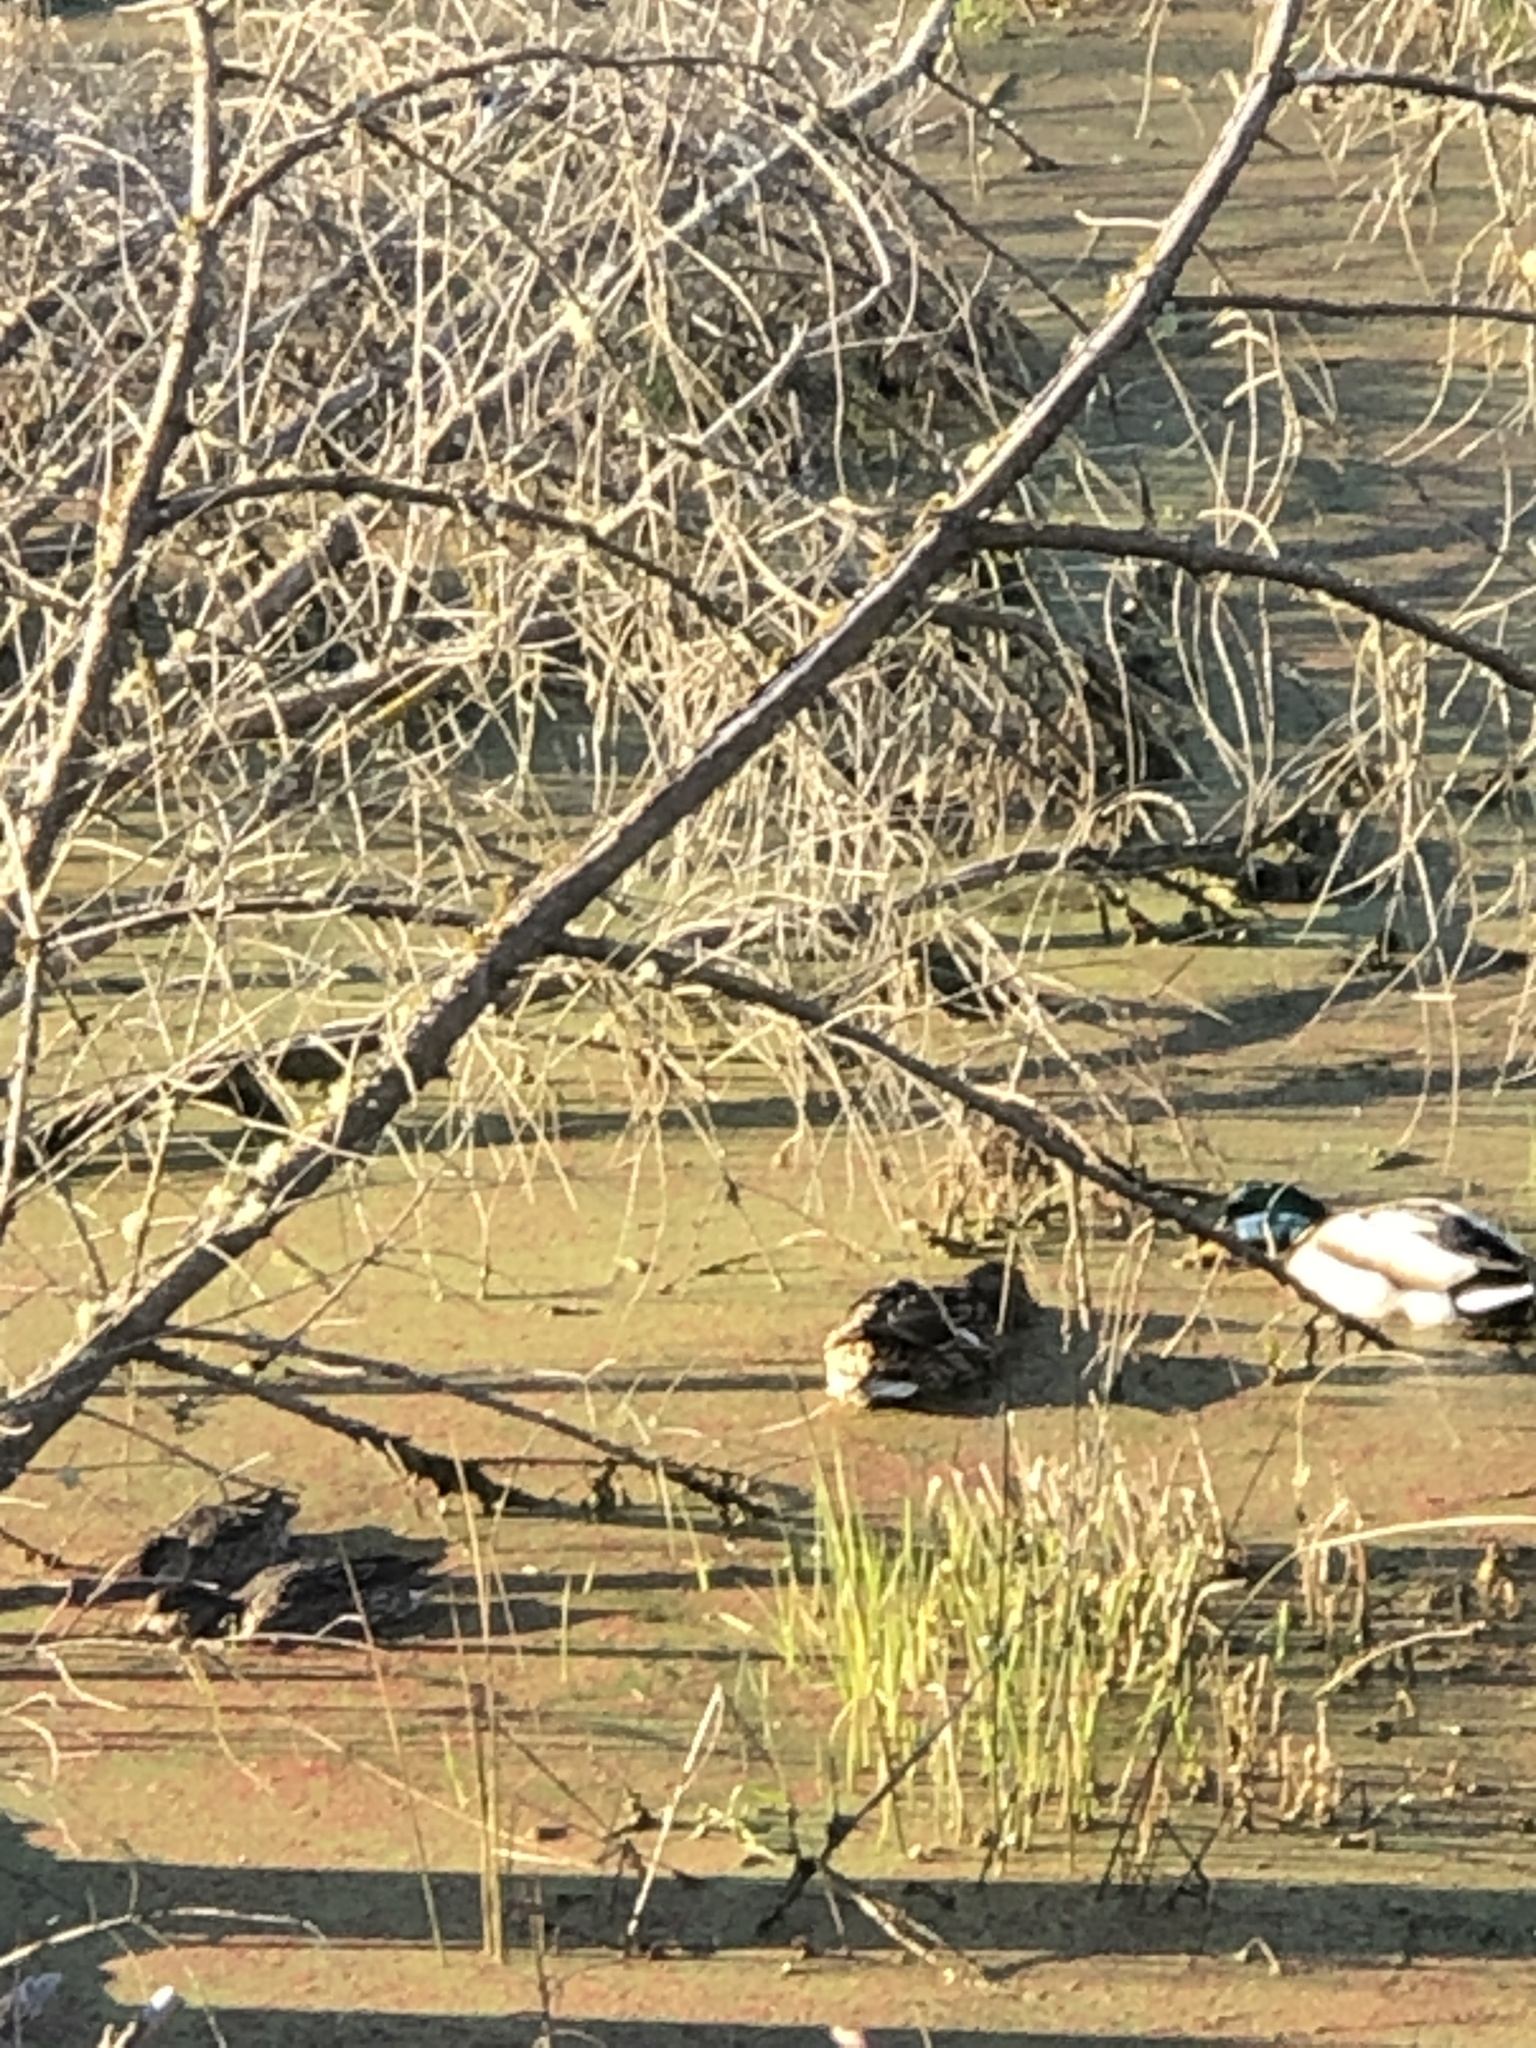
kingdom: Animalia
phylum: Chordata
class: Aves
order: Anseriformes
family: Anatidae
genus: Anas
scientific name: Anas platyrhynchos
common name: Mallard
